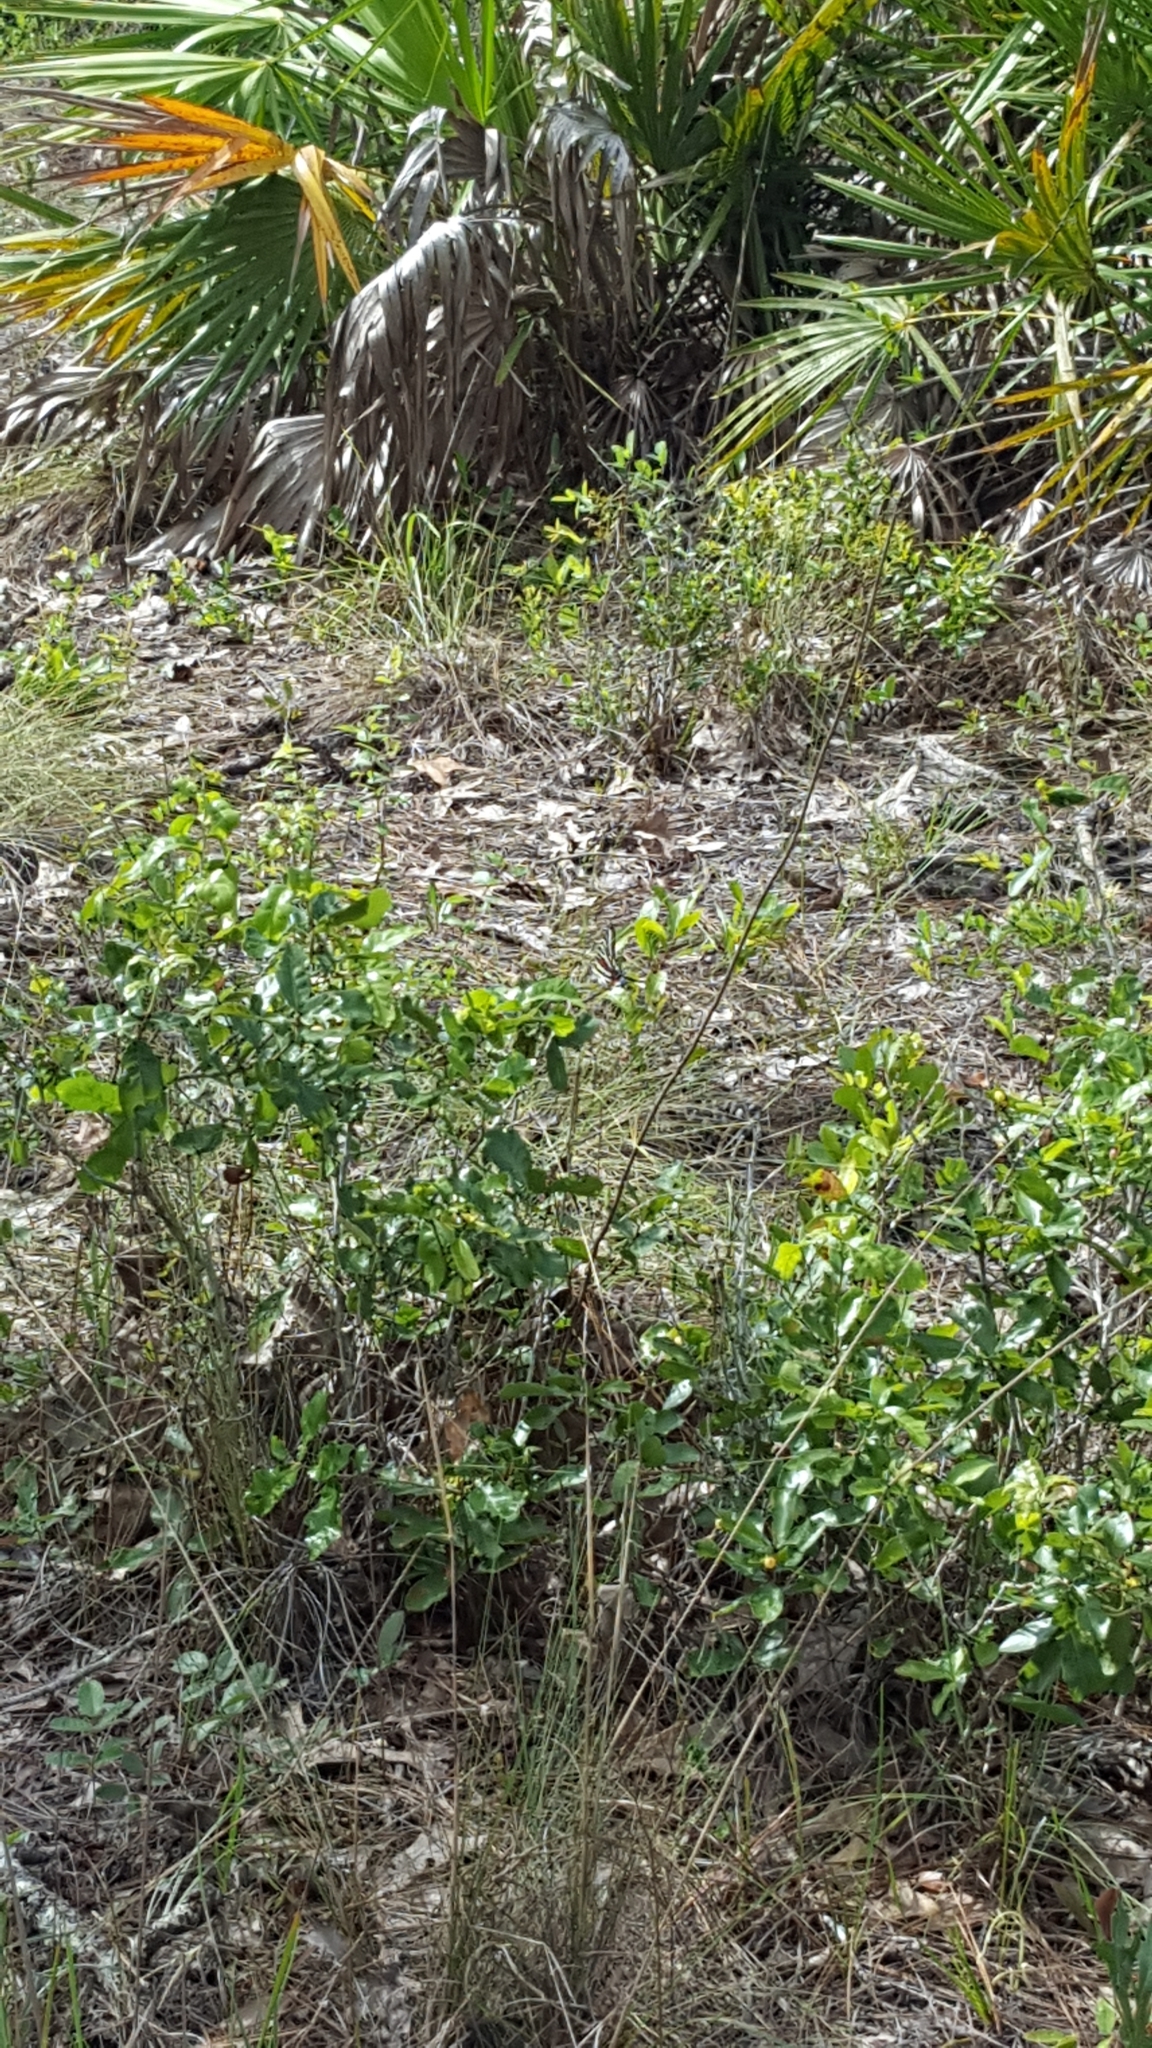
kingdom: Animalia
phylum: Arthropoda
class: Insecta
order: Lepidoptera
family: Papilionidae
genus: Protographium
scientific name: Protographium marcellus
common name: Zebra swallowtail
